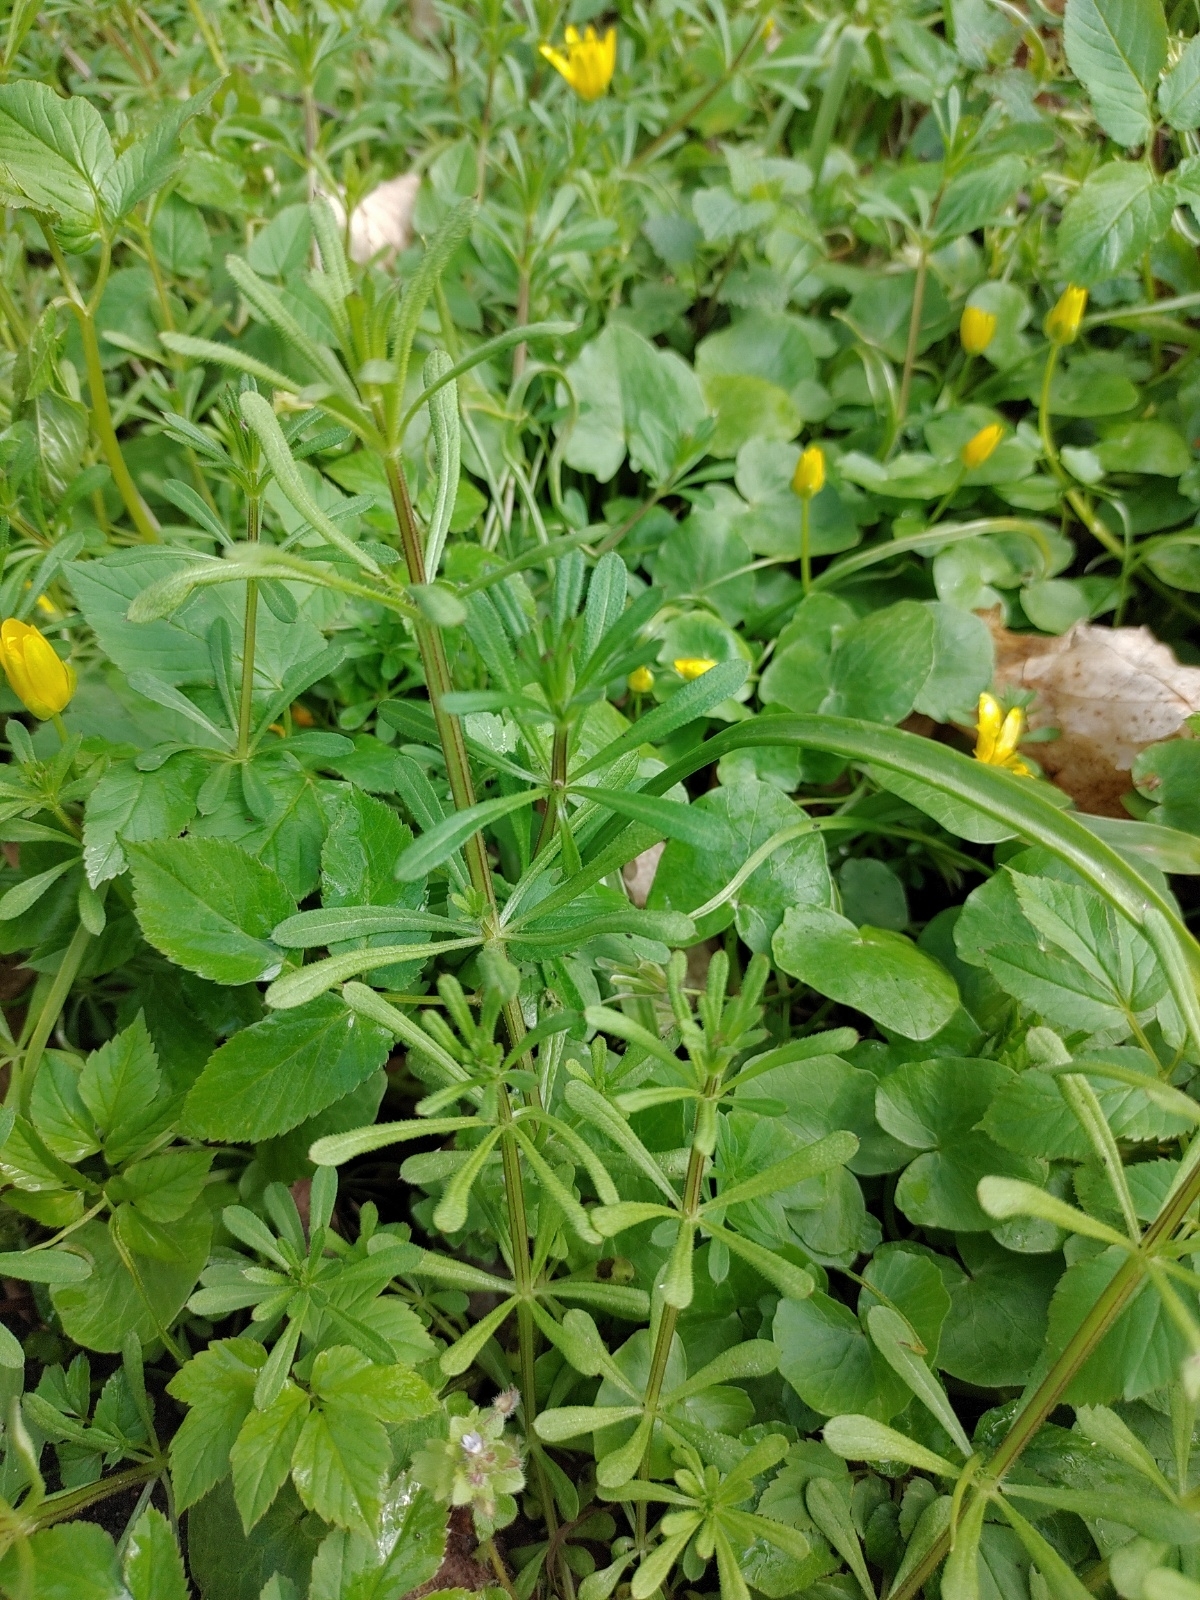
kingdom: Plantae
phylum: Tracheophyta
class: Magnoliopsida
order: Gentianales
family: Rubiaceae
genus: Galium
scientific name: Galium aparine
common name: Cleavers
